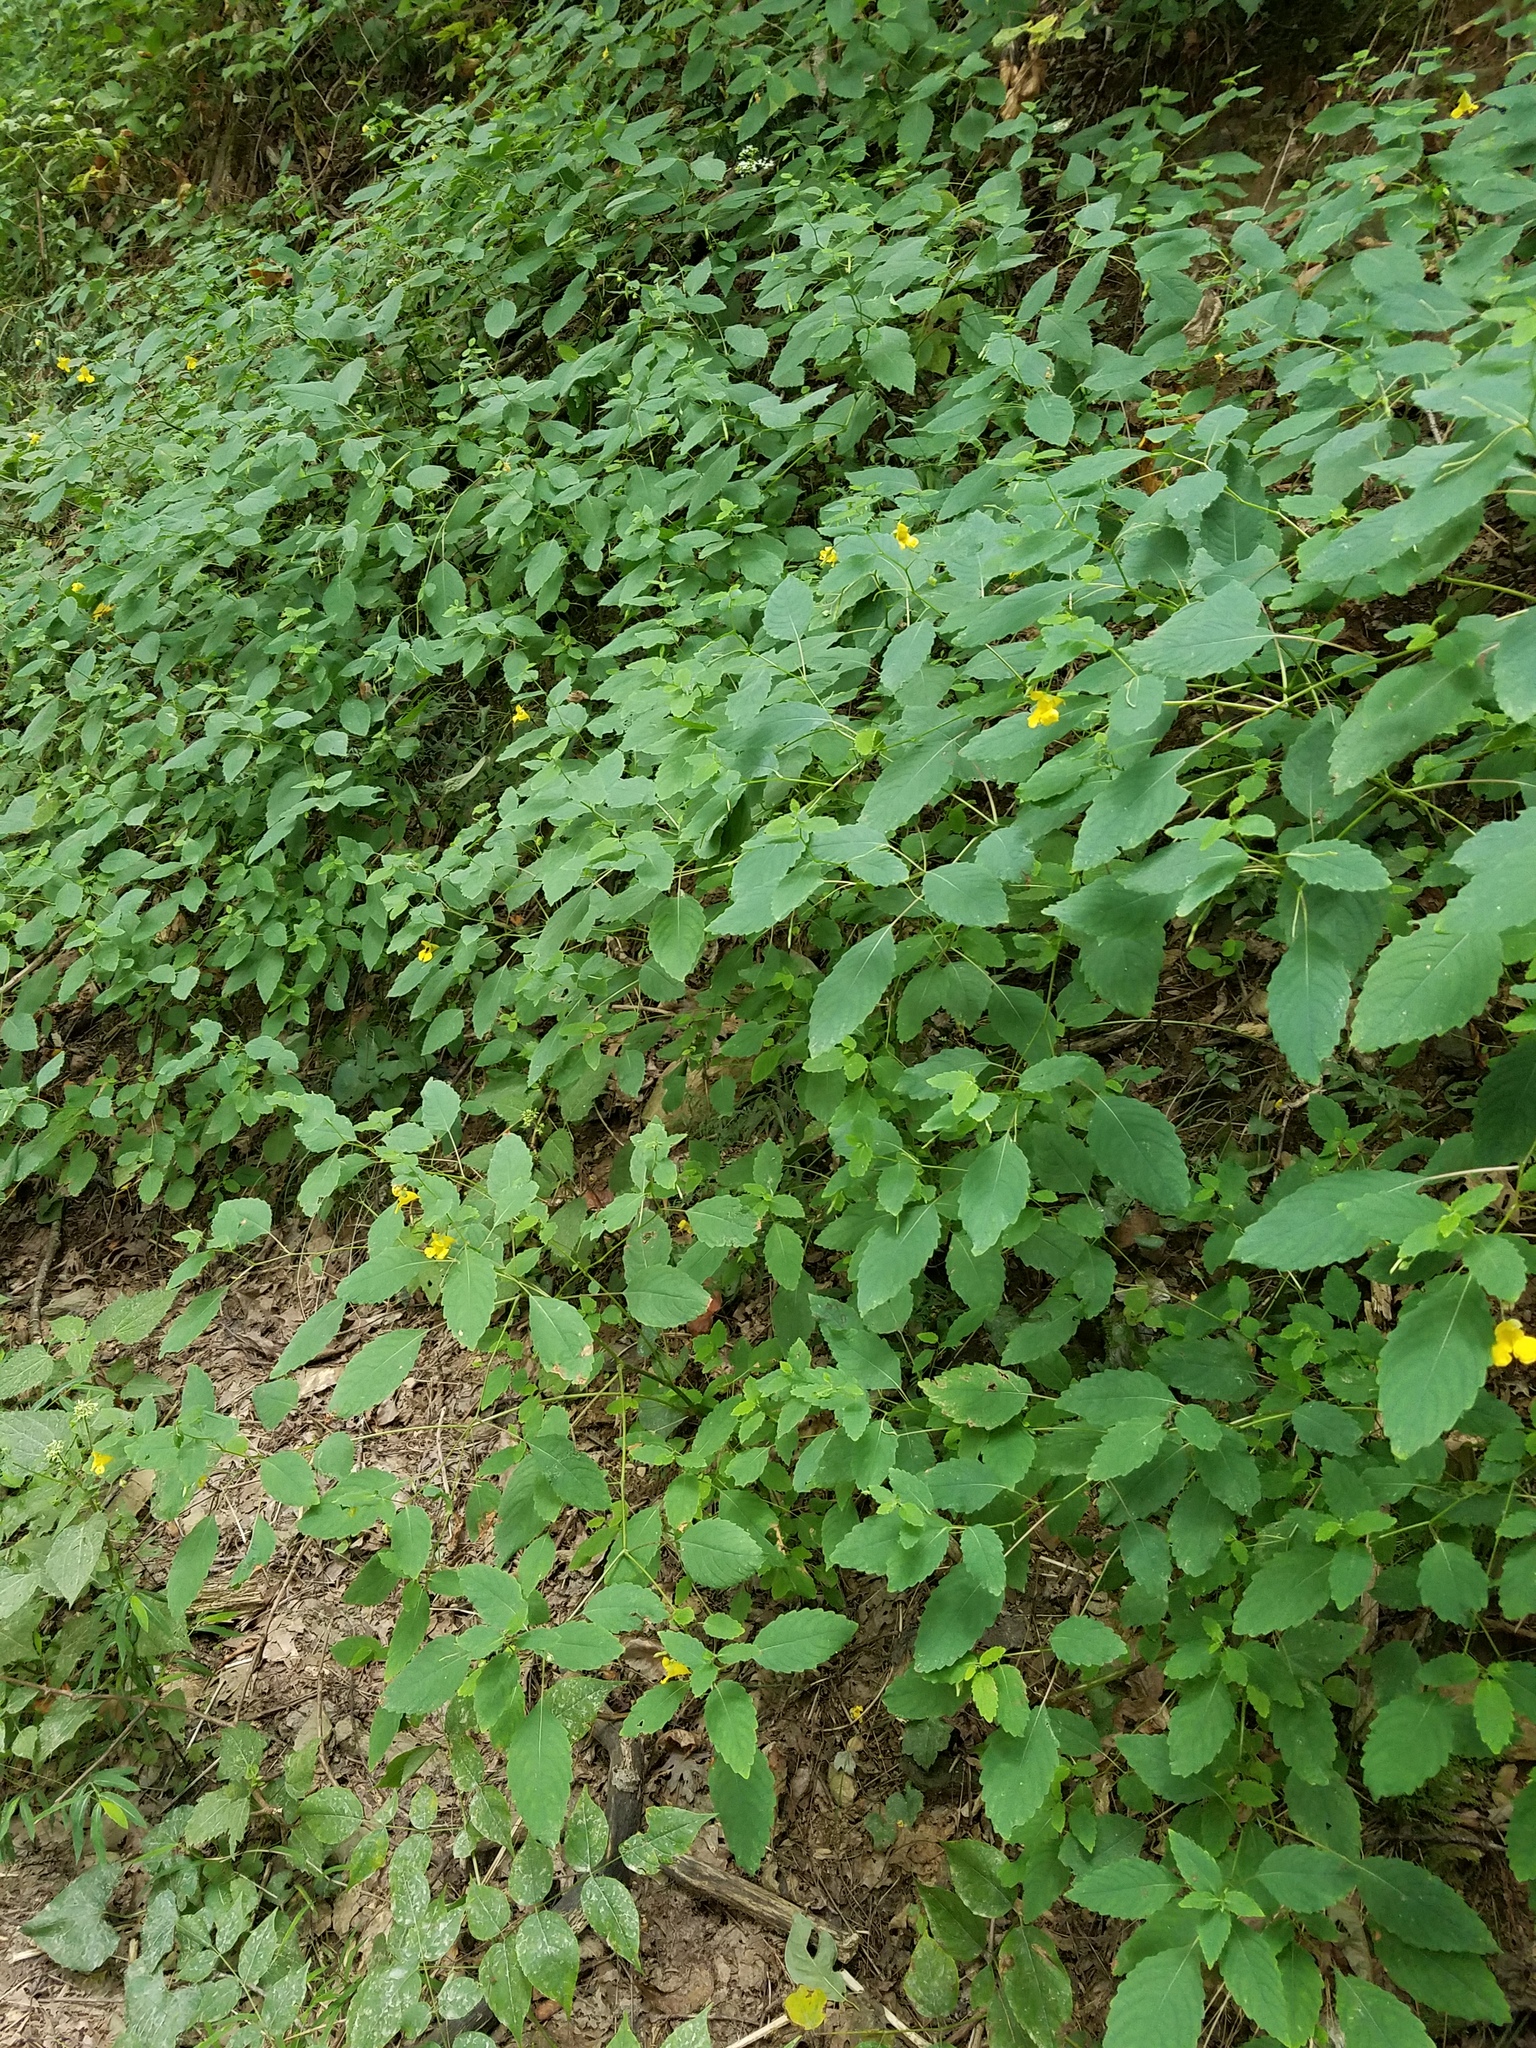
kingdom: Plantae
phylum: Tracheophyta
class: Magnoliopsida
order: Ericales
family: Balsaminaceae
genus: Impatiens
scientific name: Impatiens pallida
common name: Pale snapweed
